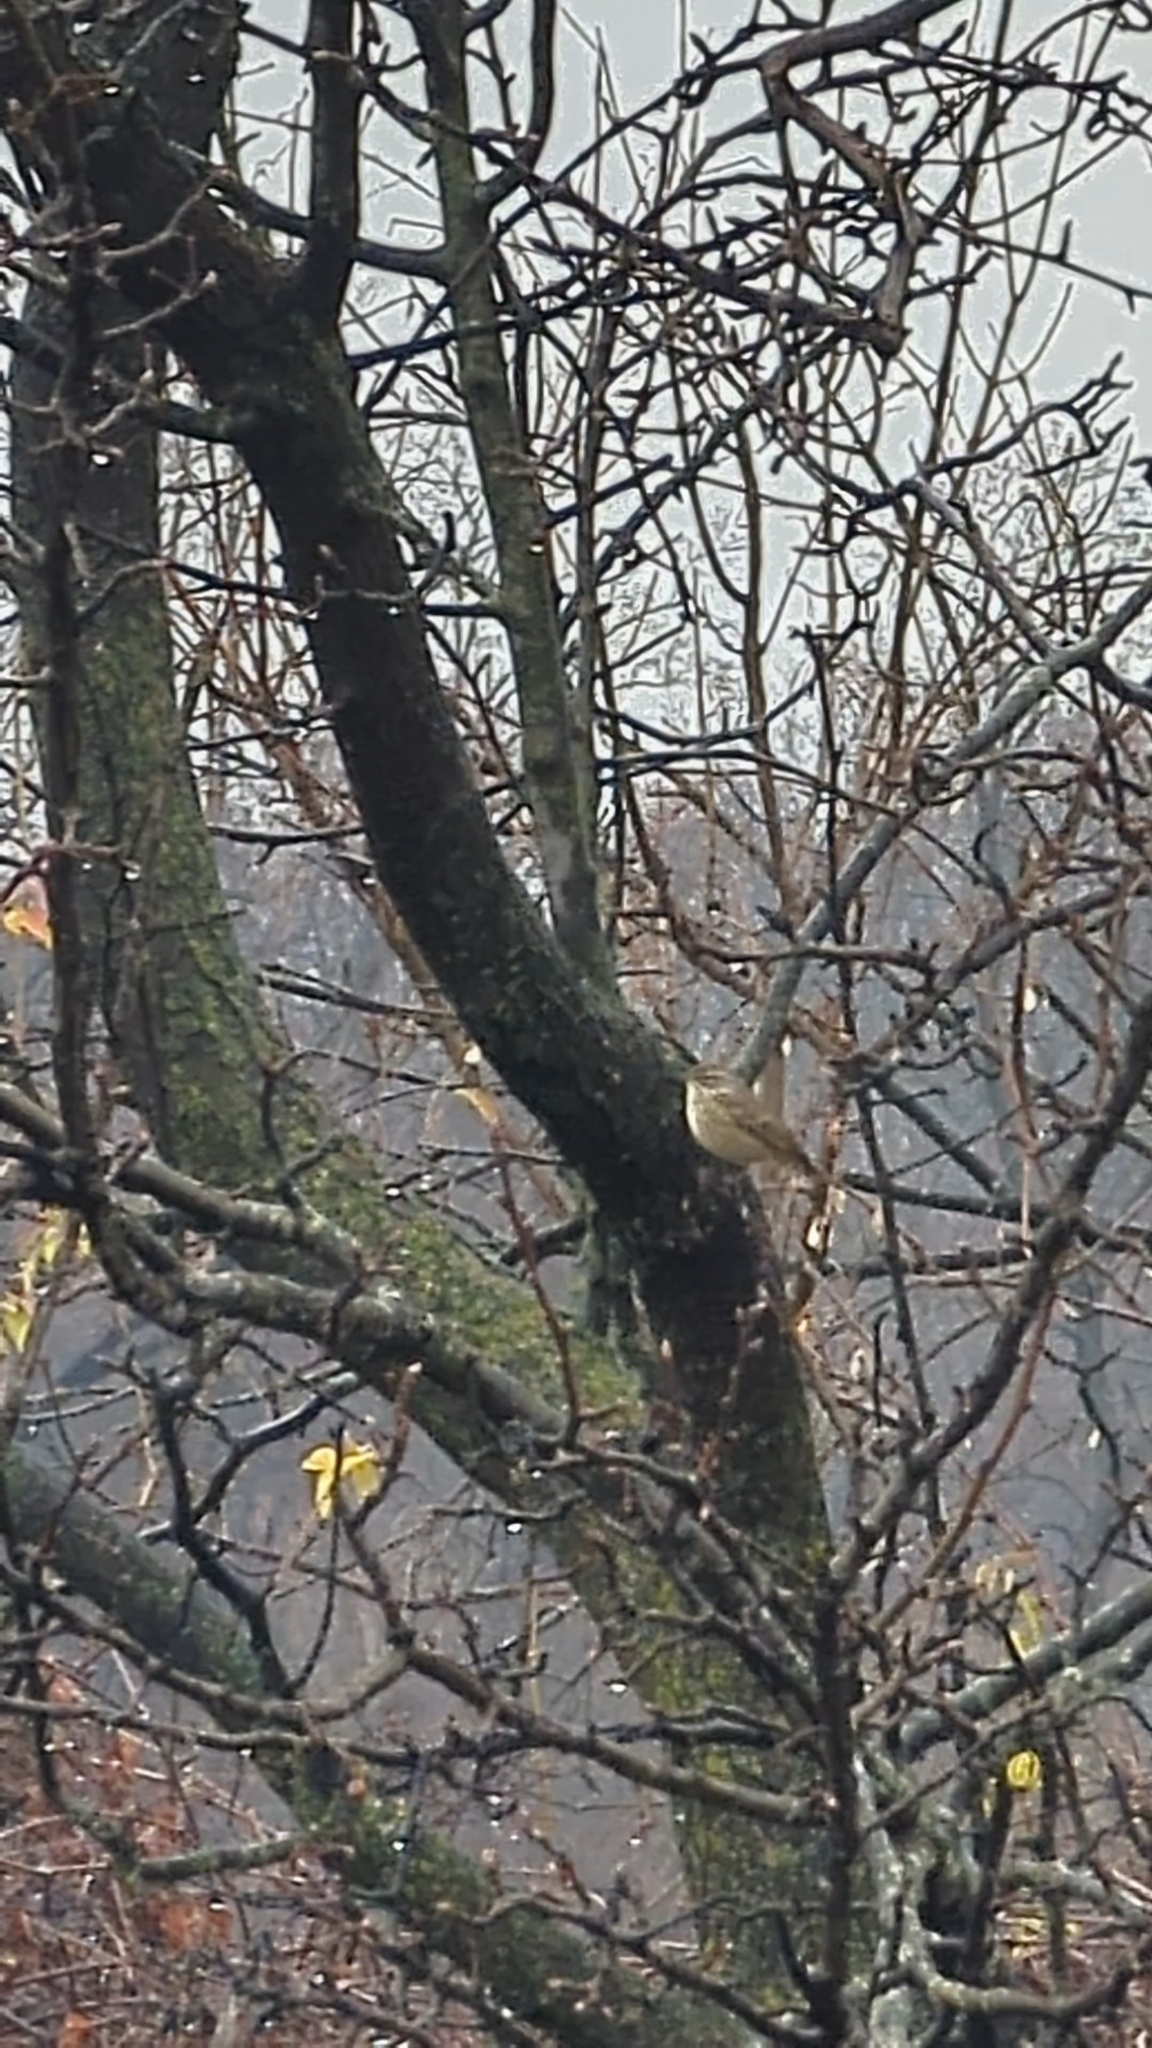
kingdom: Animalia
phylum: Chordata
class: Aves
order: Passeriformes
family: Parulidae
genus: Setophaga
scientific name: Setophaga palmarum
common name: Palm warbler
